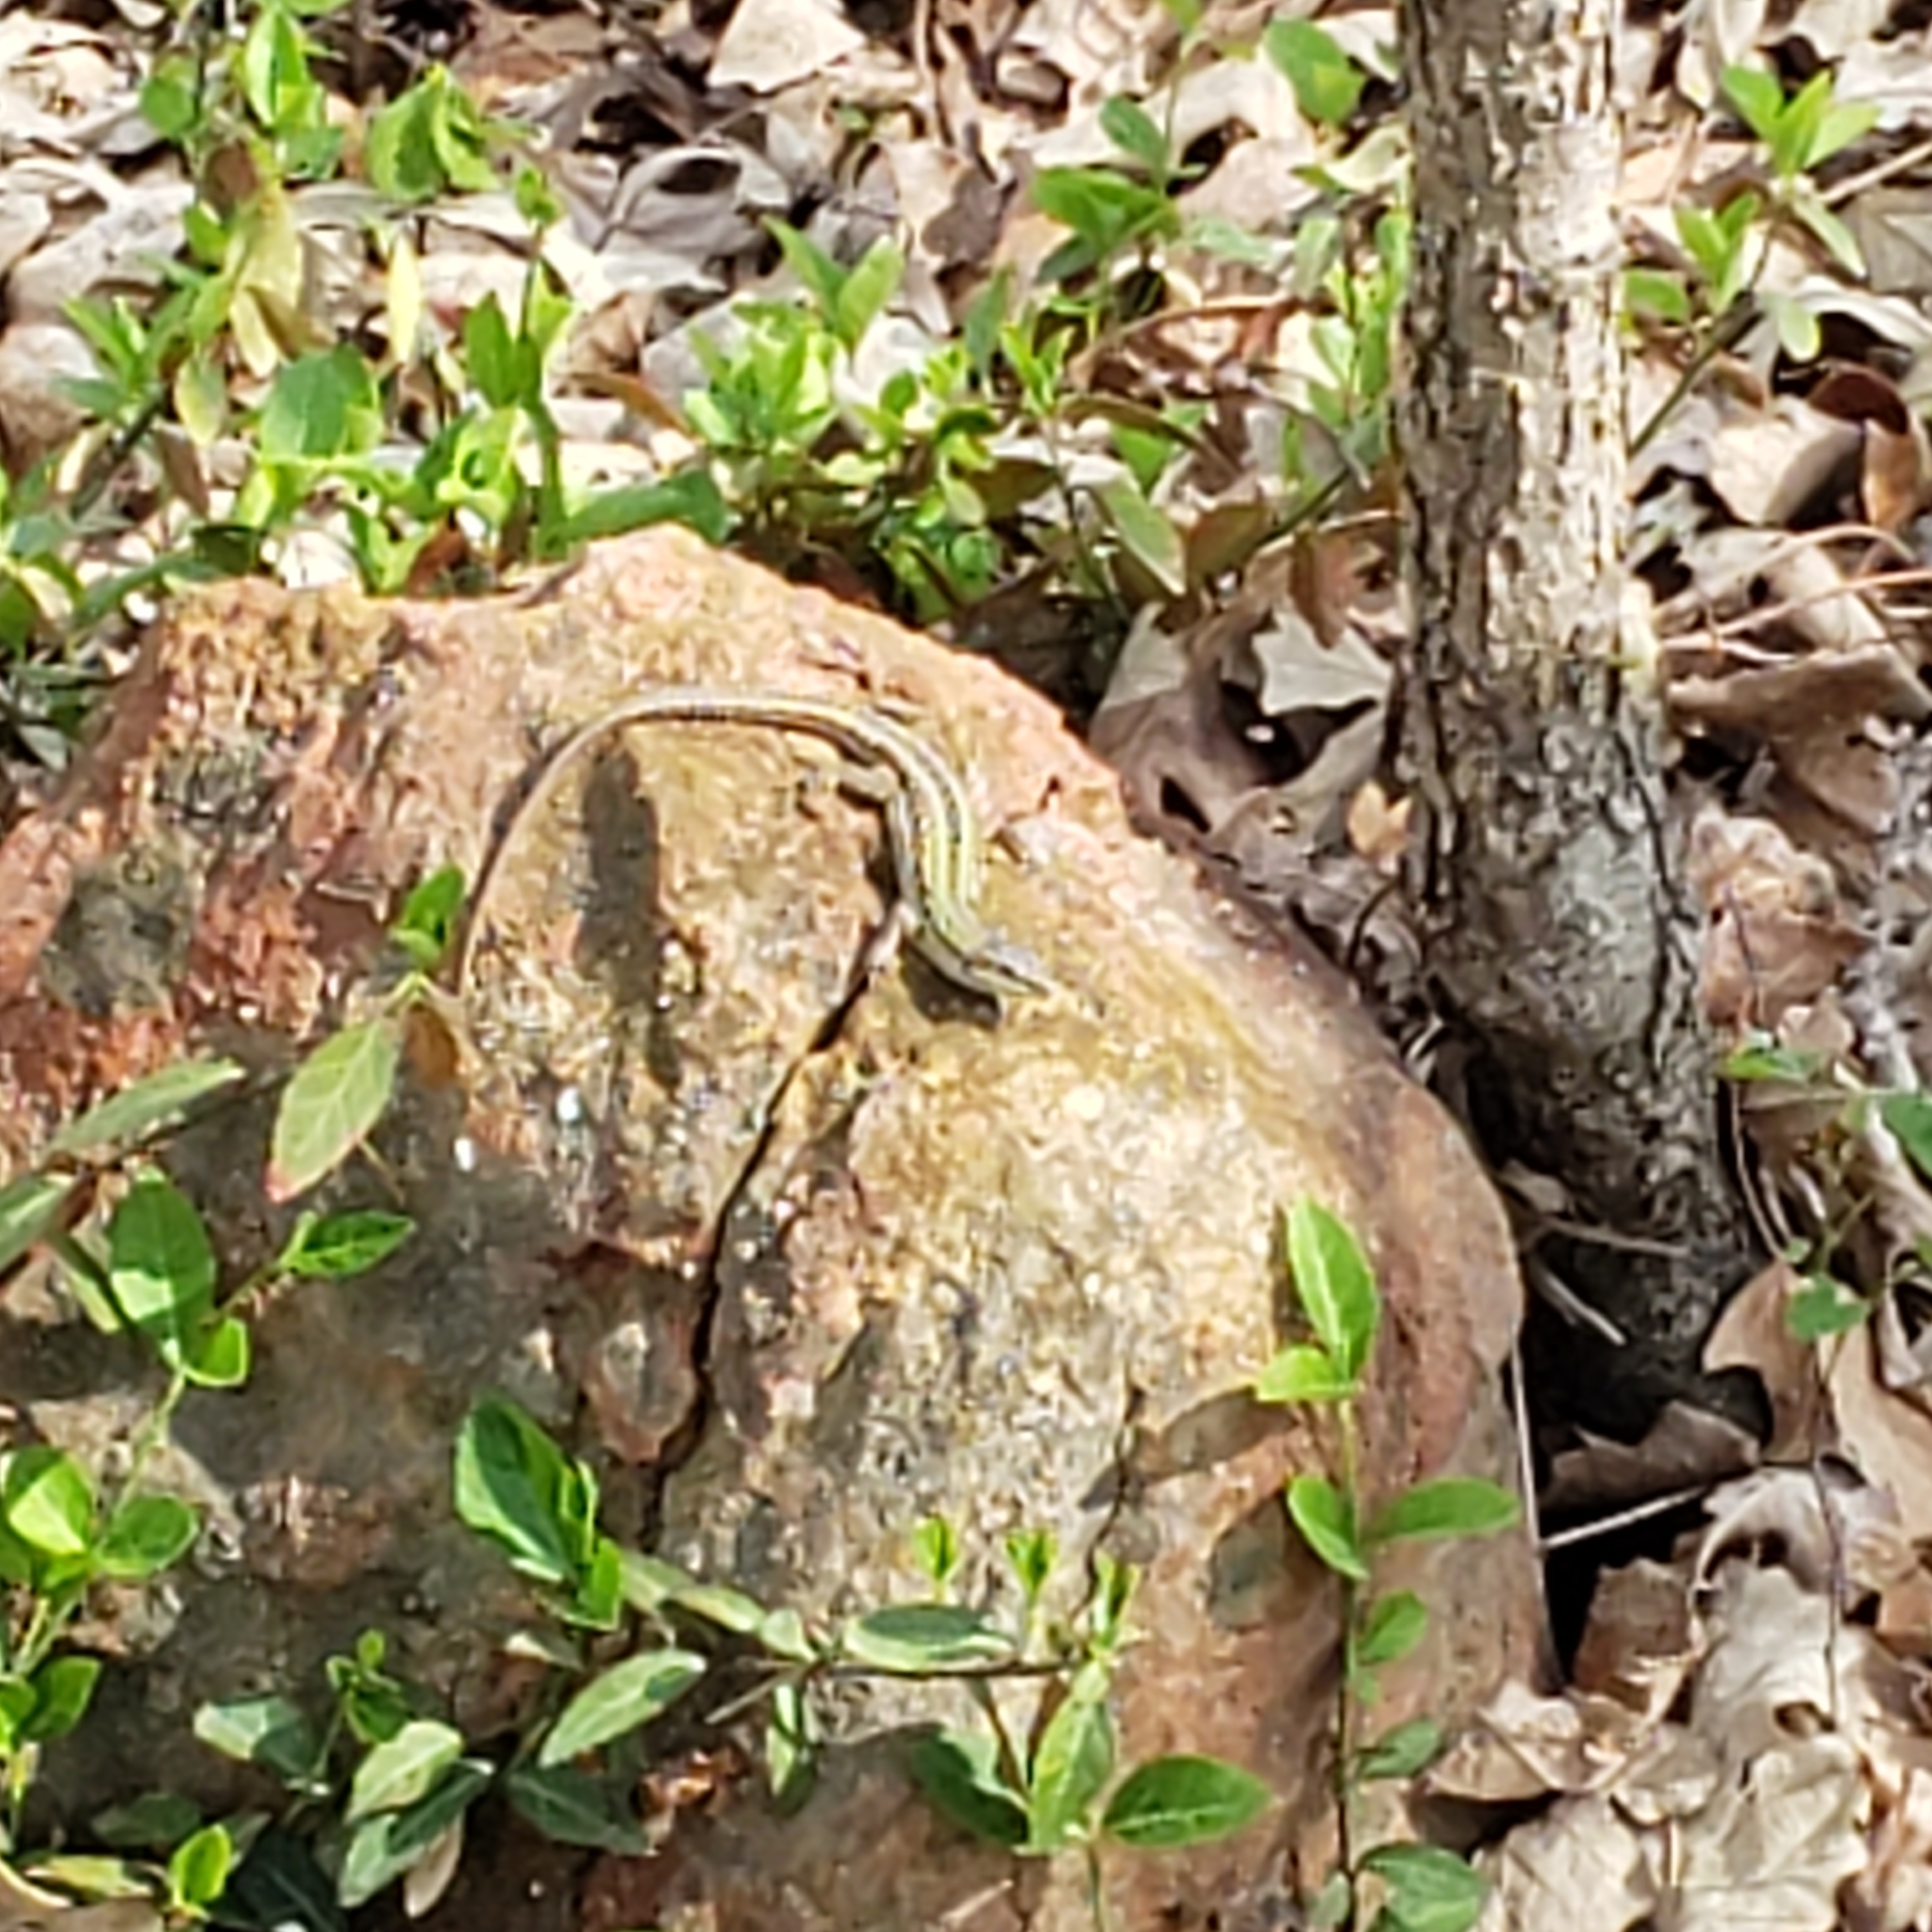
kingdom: Animalia
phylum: Chordata
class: Squamata
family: Lacertidae
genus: Podarcis
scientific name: Podarcis siculus
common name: Italian wall lizard
